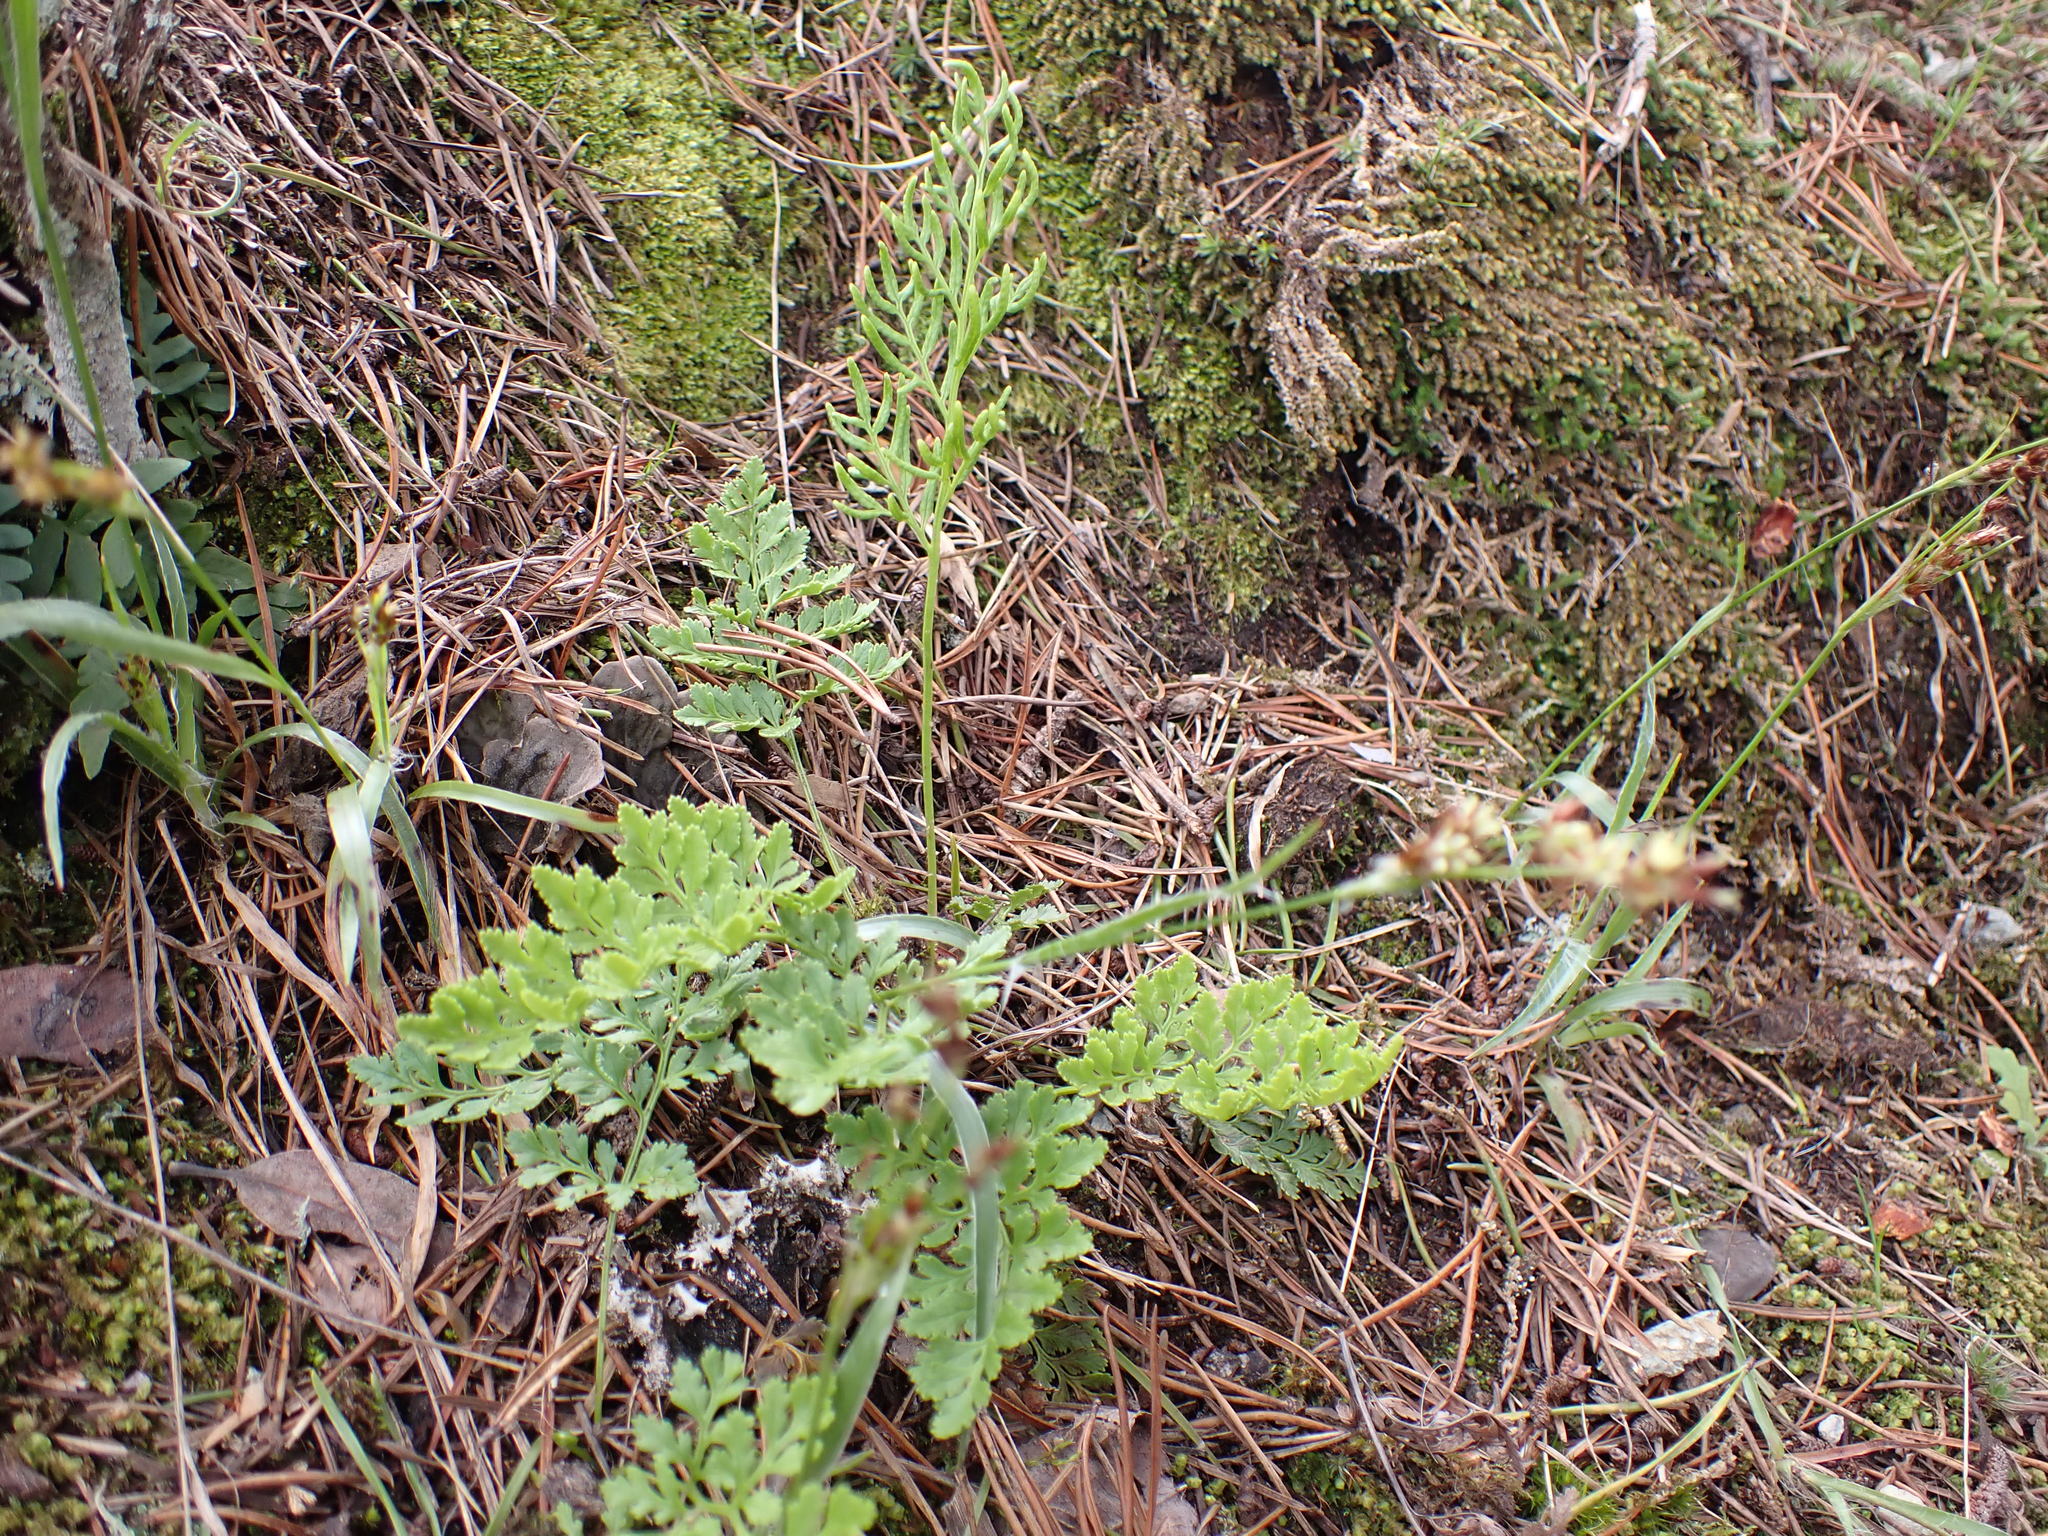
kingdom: Plantae
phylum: Tracheophyta
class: Polypodiopsida
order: Polypodiales
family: Pteridaceae
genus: Cryptogramma
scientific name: Cryptogramma acrostichoides
